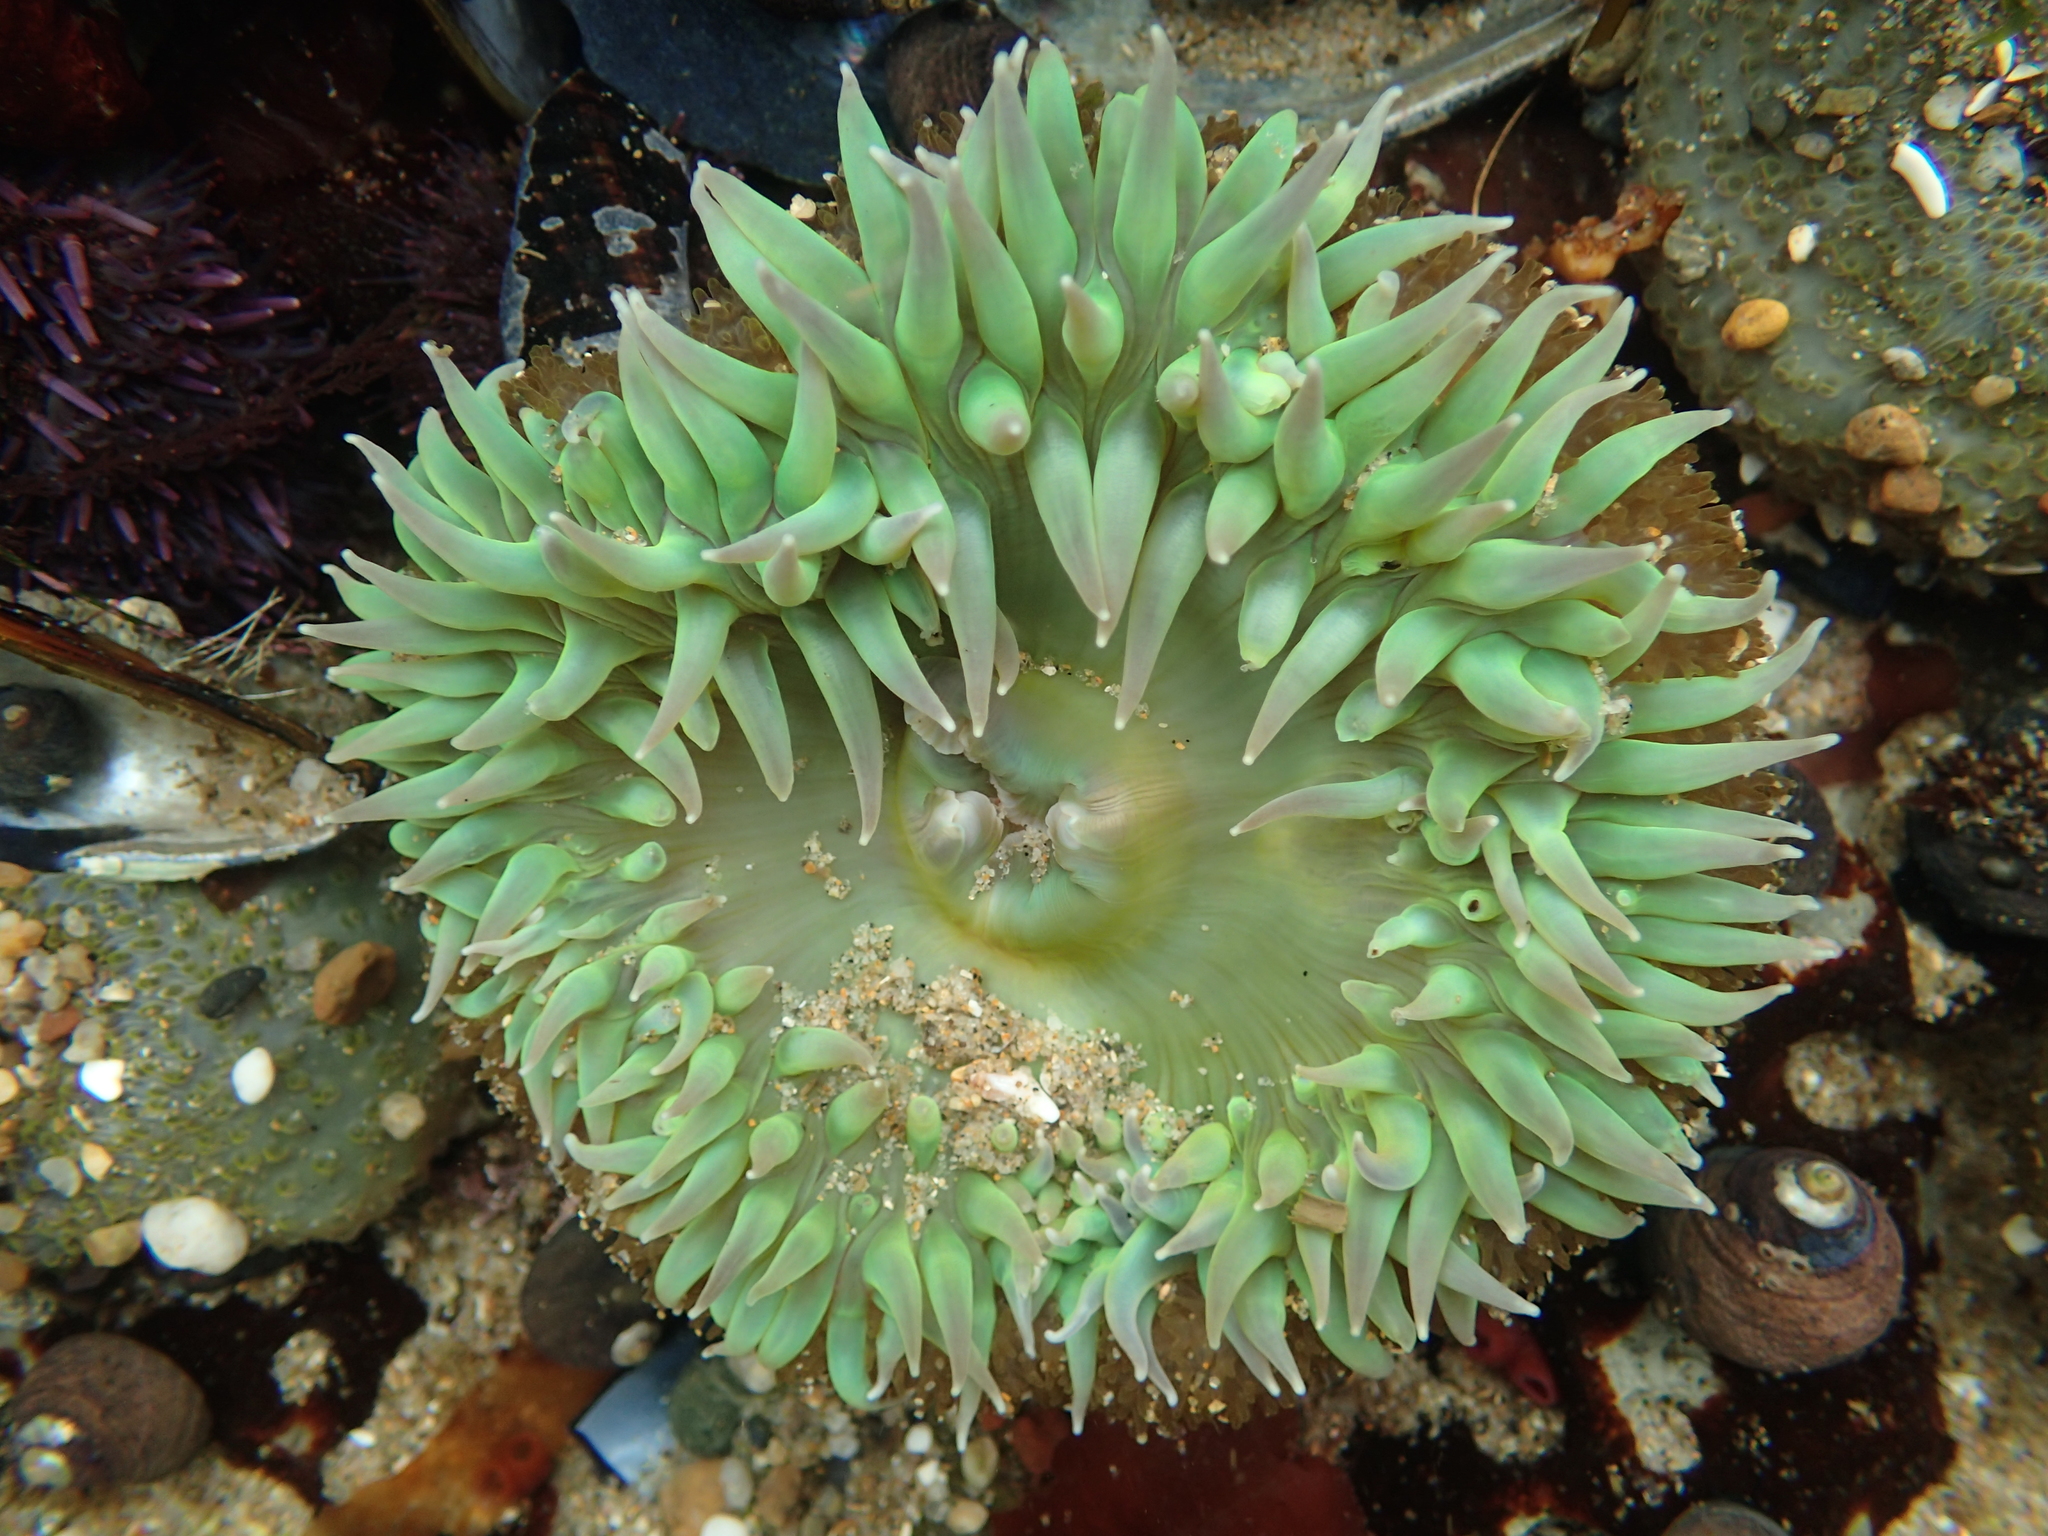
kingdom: Animalia
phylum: Cnidaria
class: Anthozoa
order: Actiniaria
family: Actiniidae
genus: Anthopleura
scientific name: Anthopleura xanthogrammica
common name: Giant green anemone
